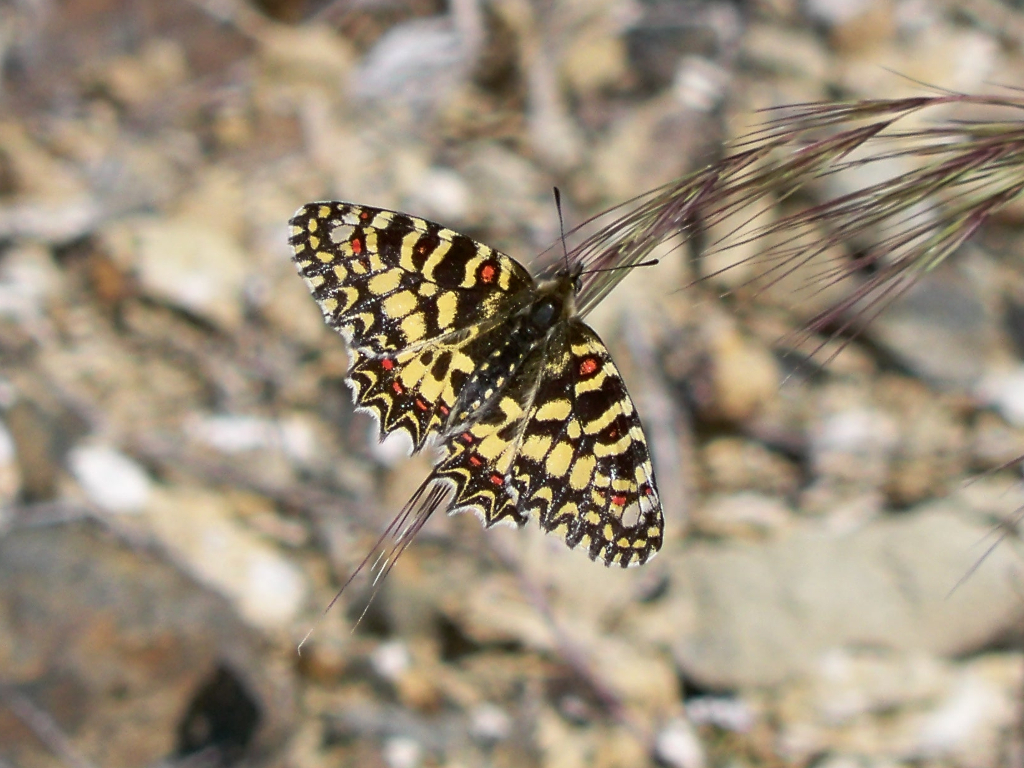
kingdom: Animalia
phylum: Arthropoda
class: Insecta
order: Lepidoptera
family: Papilionidae
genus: Zerynthia
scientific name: Zerynthia rumina
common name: Spanish festoon
